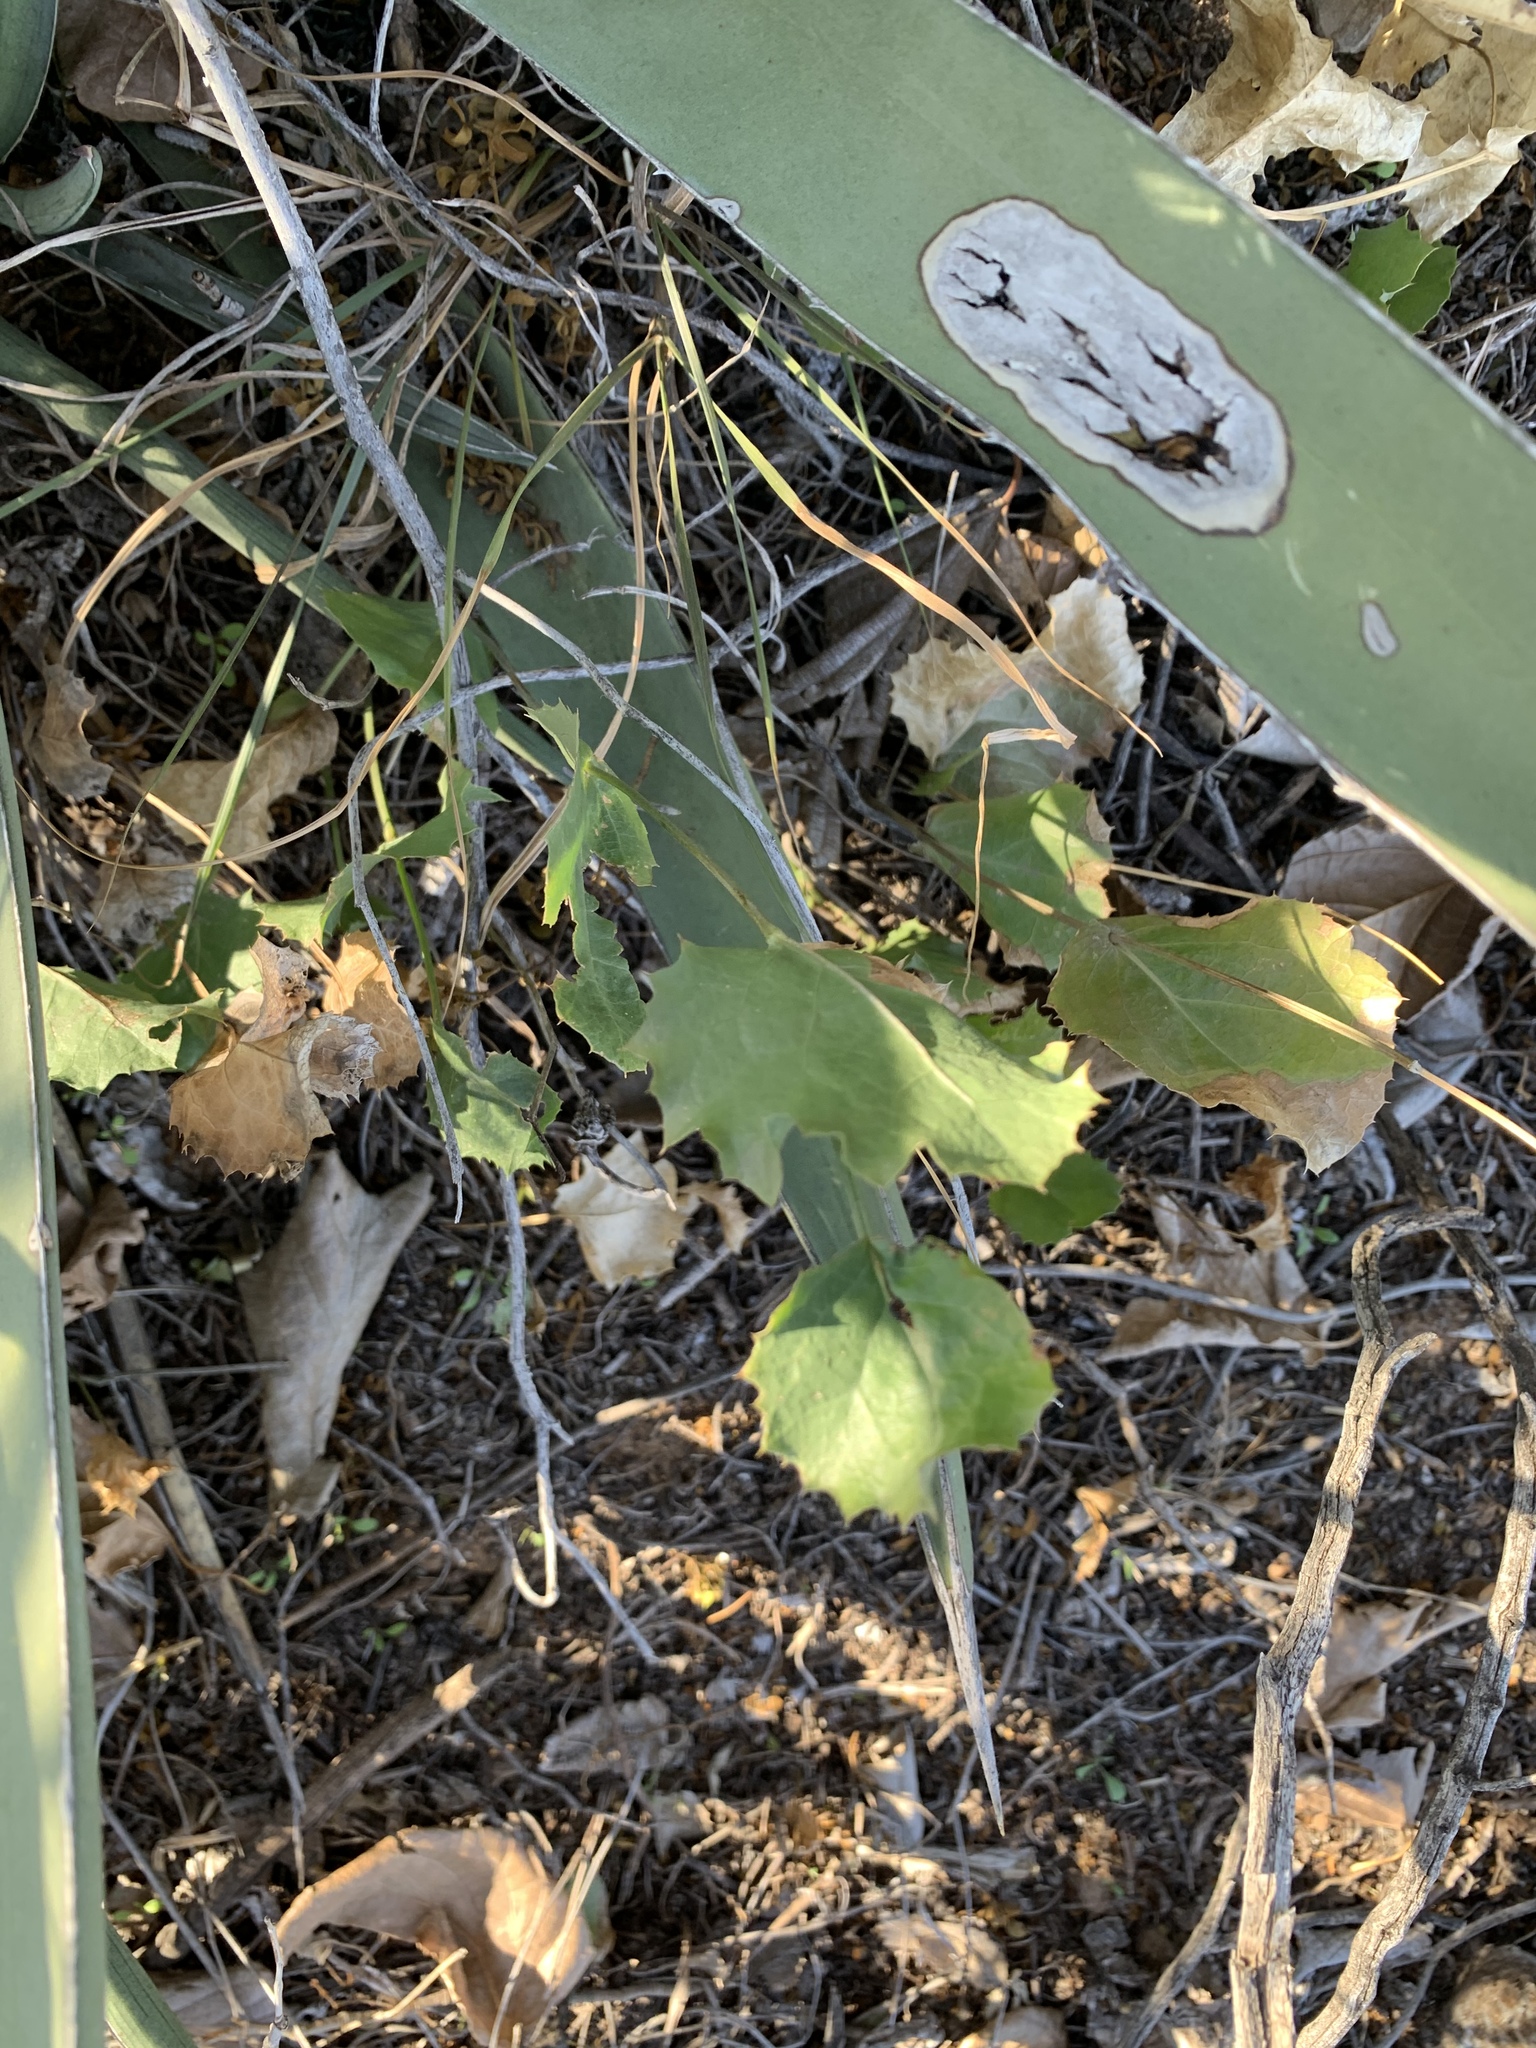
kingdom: Plantae
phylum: Tracheophyta
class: Magnoliopsida
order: Asterales
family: Asteraceae
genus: Acourtia
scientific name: Acourtia nana
